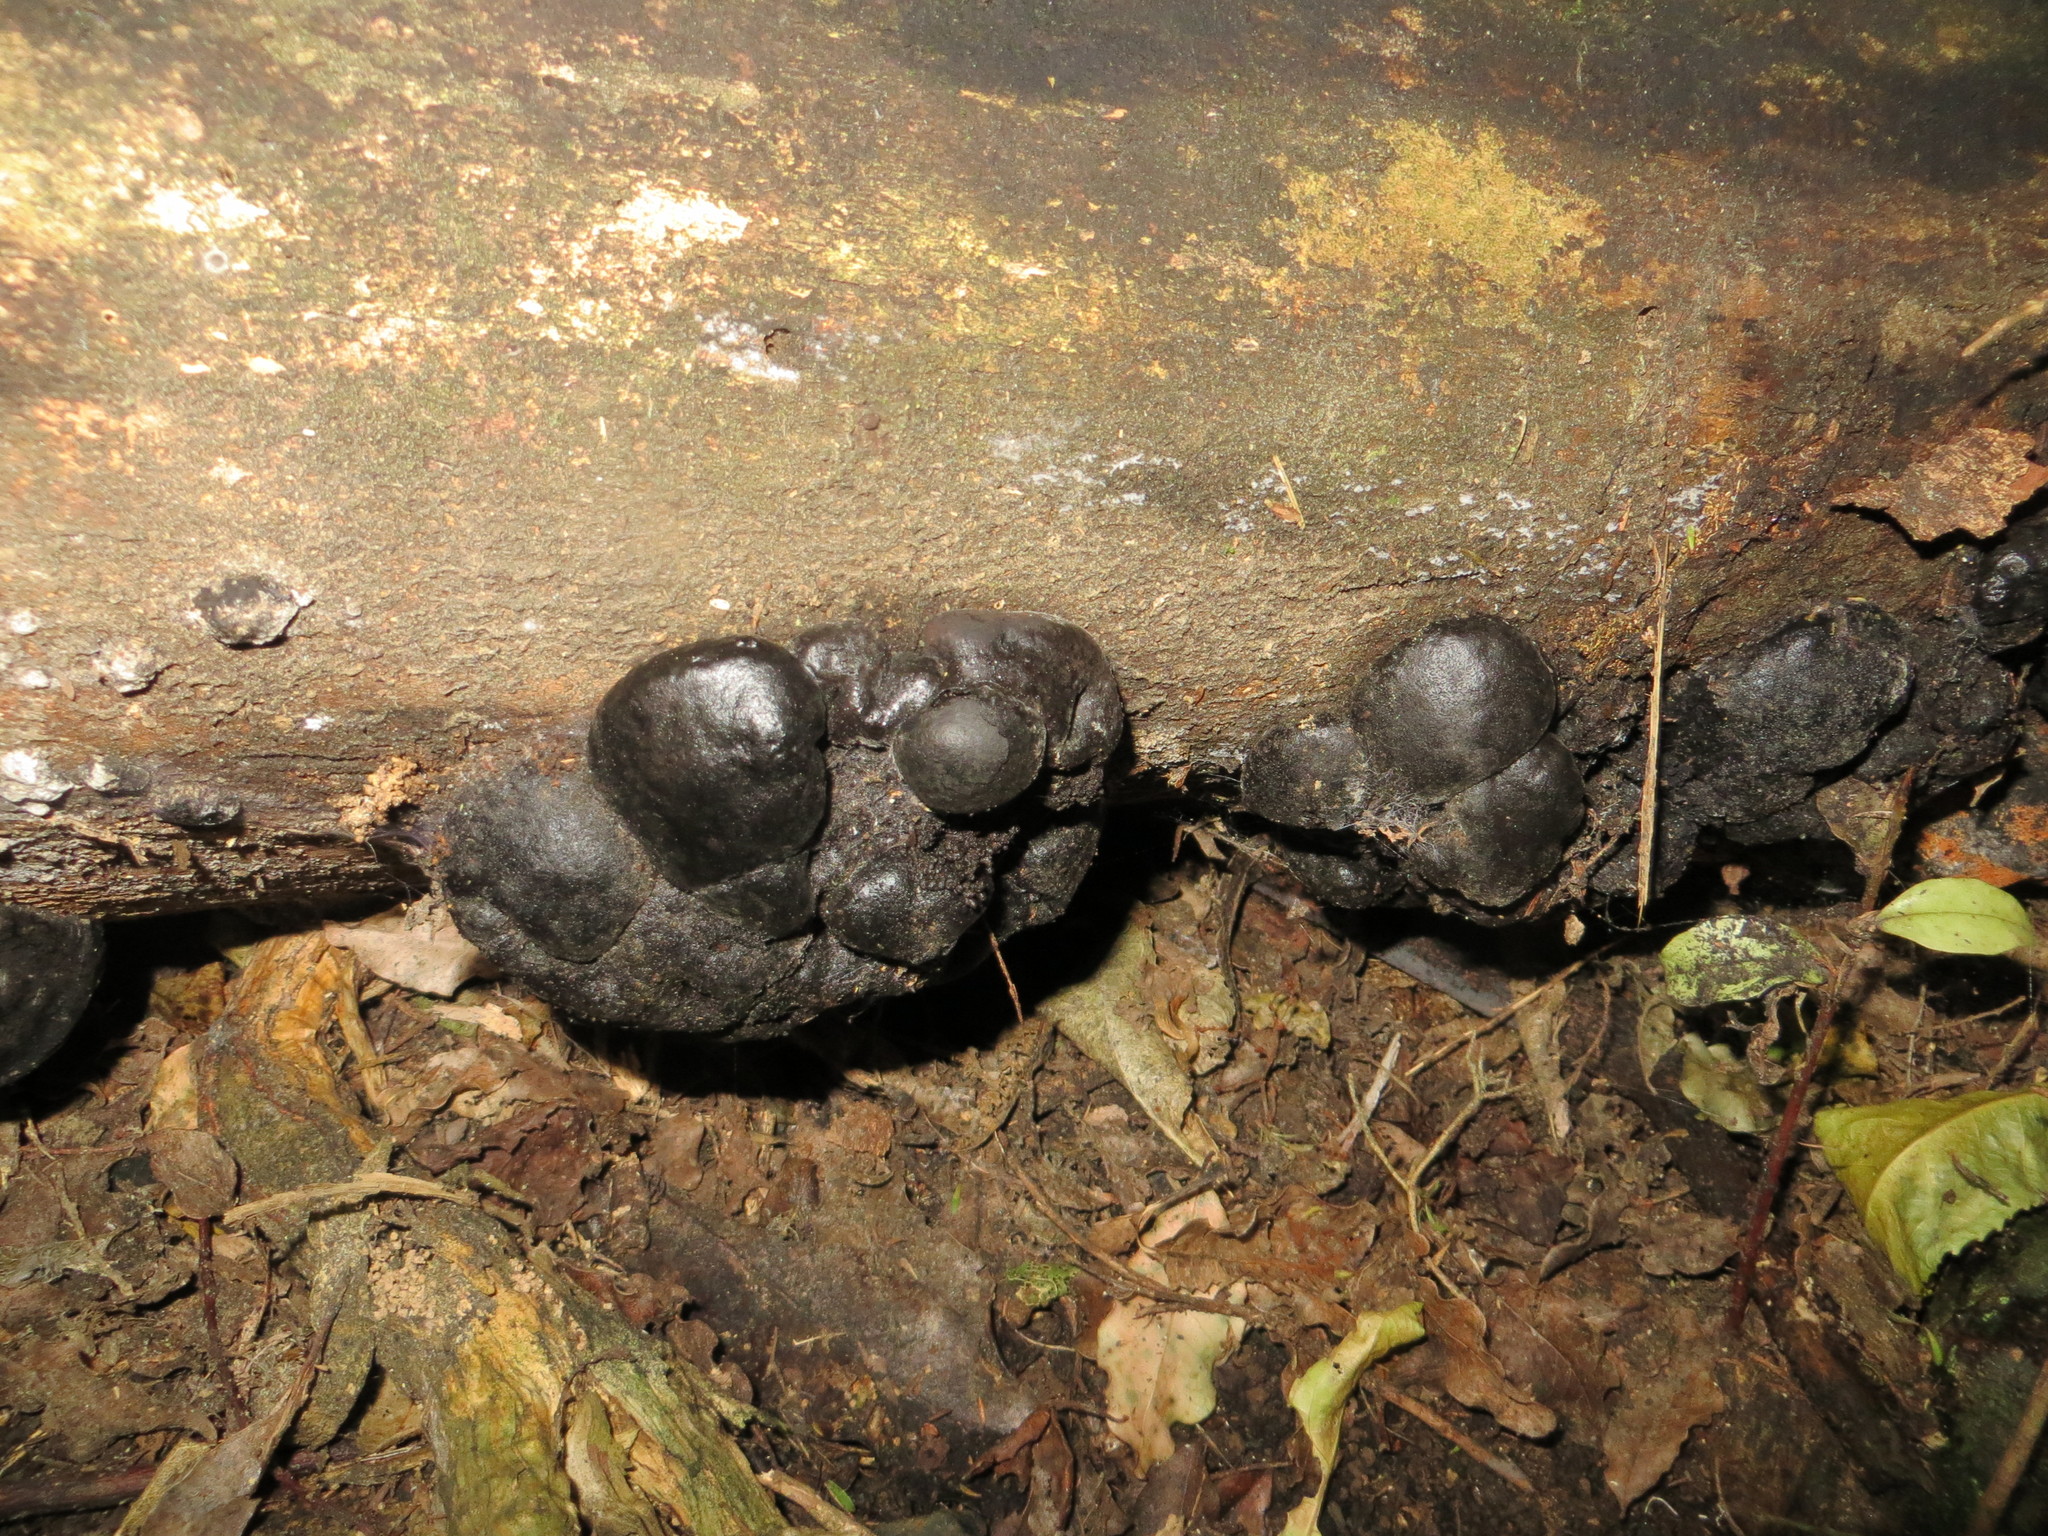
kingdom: Fungi
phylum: Ascomycota
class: Sordariomycetes
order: Xylariales
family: Hypoxylaceae
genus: Daldinia
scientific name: Daldinia
